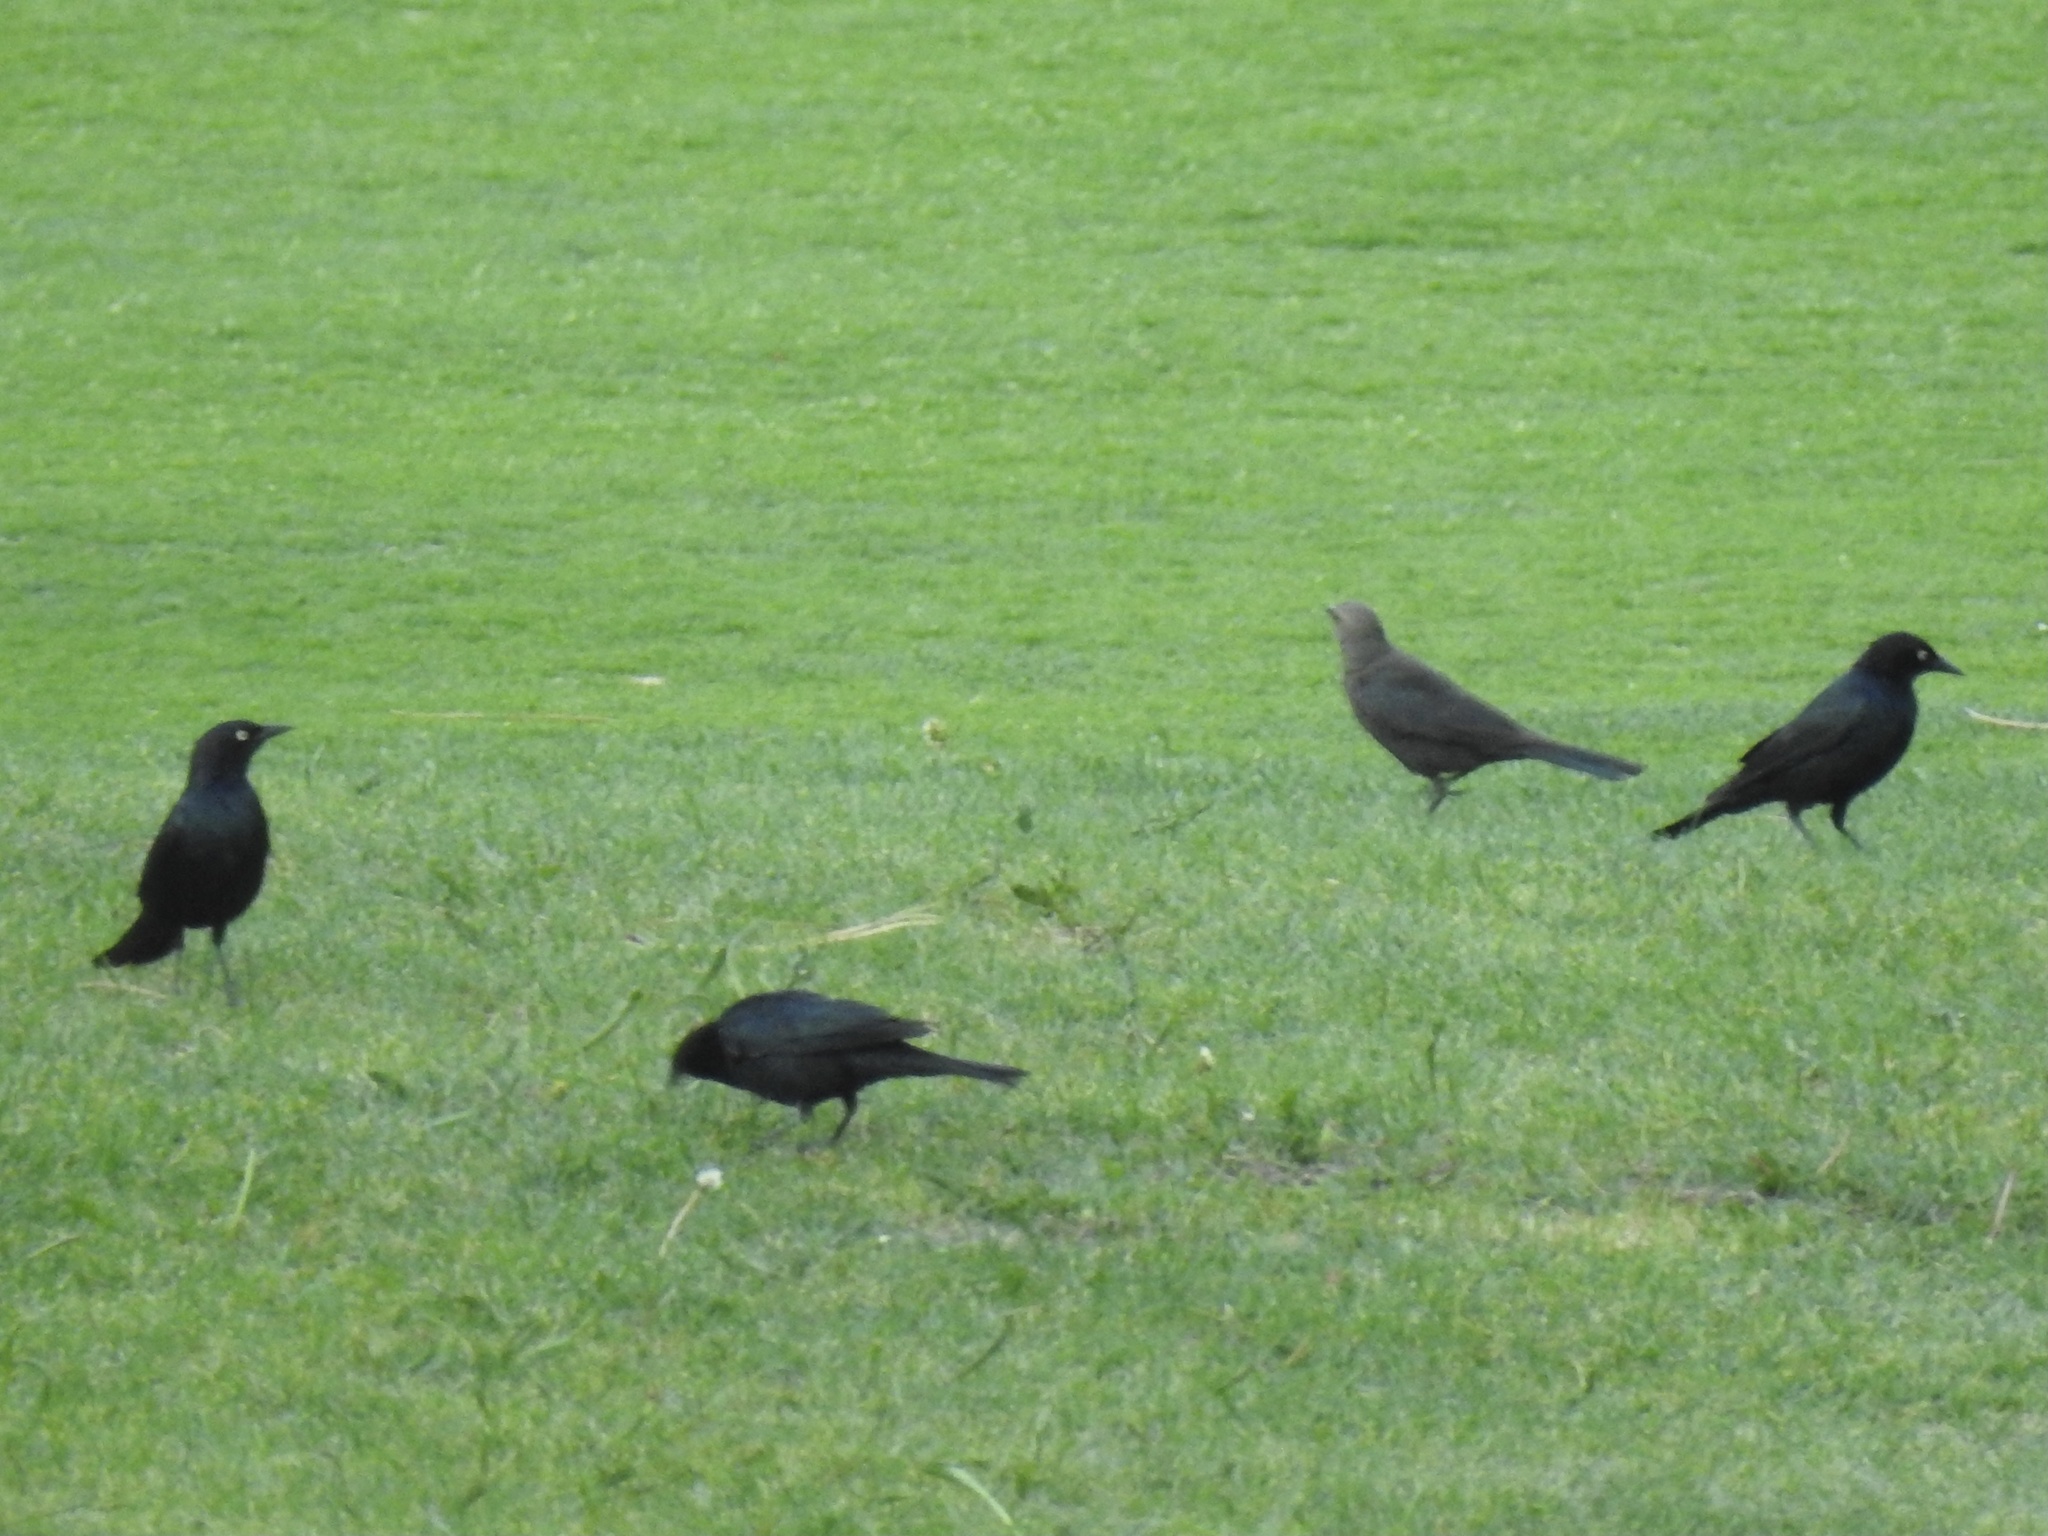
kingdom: Animalia
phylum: Chordata
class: Aves
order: Passeriformes
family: Icteridae
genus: Euphagus
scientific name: Euphagus cyanocephalus
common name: Brewer's blackbird
